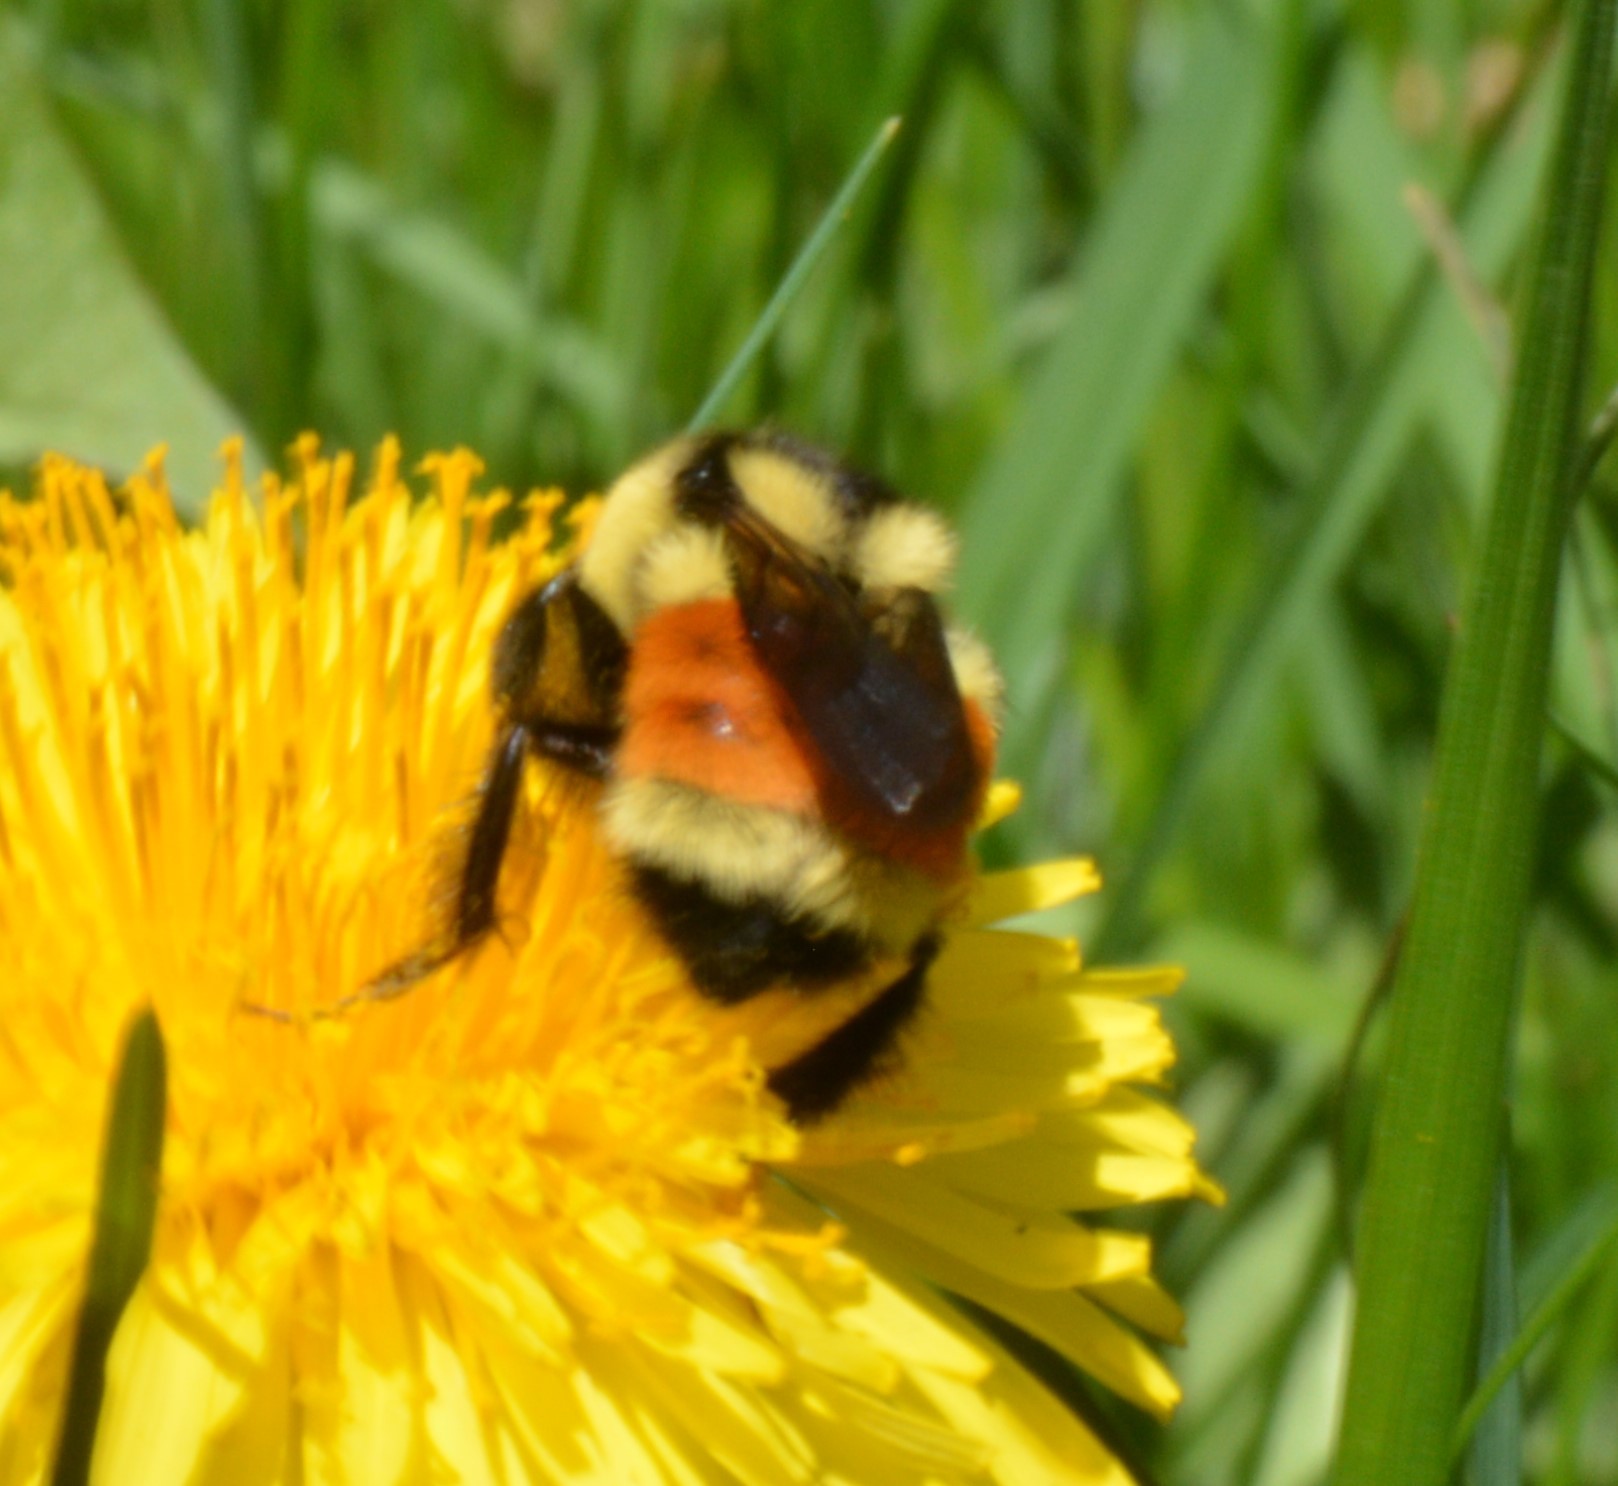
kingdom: Animalia
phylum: Arthropoda
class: Insecta
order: Hymenoptera
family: Apidae
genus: Bombus
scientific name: Bombus ternarius
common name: Tri-colored bumble bee
